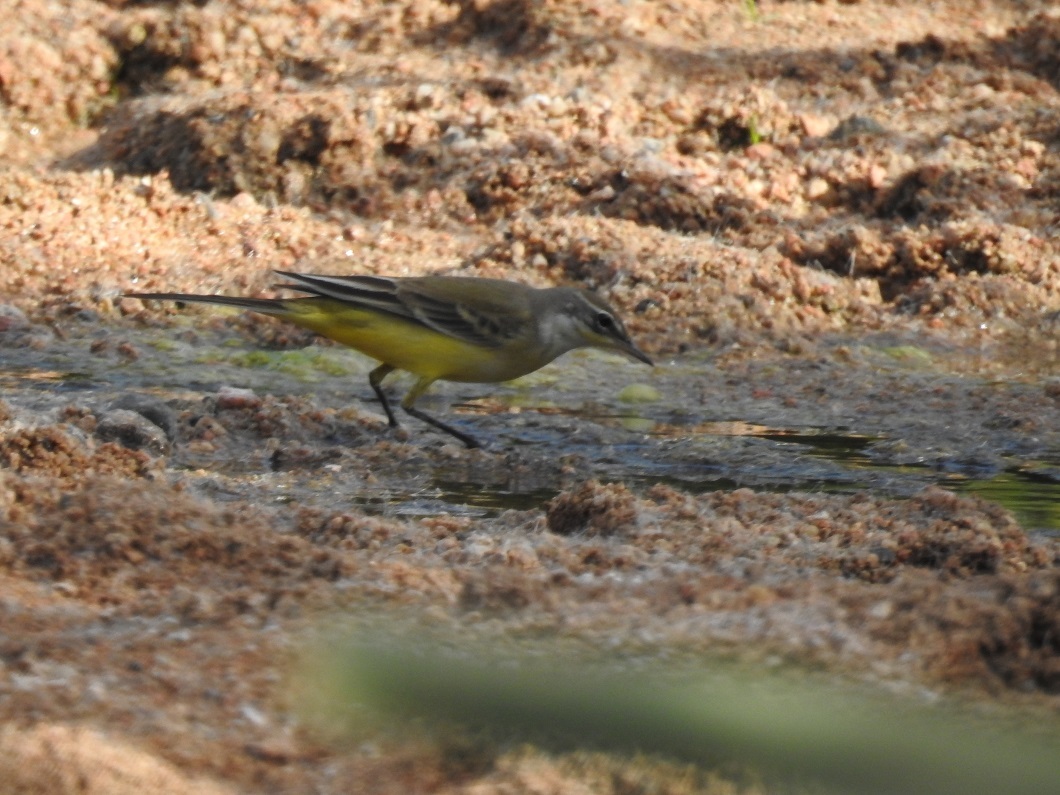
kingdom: Animalia
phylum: Chordata
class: Aves
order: Passeriformes
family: Motacillidae
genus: Motacilla
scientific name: Motacilla flava
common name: Western yellow wagtail
